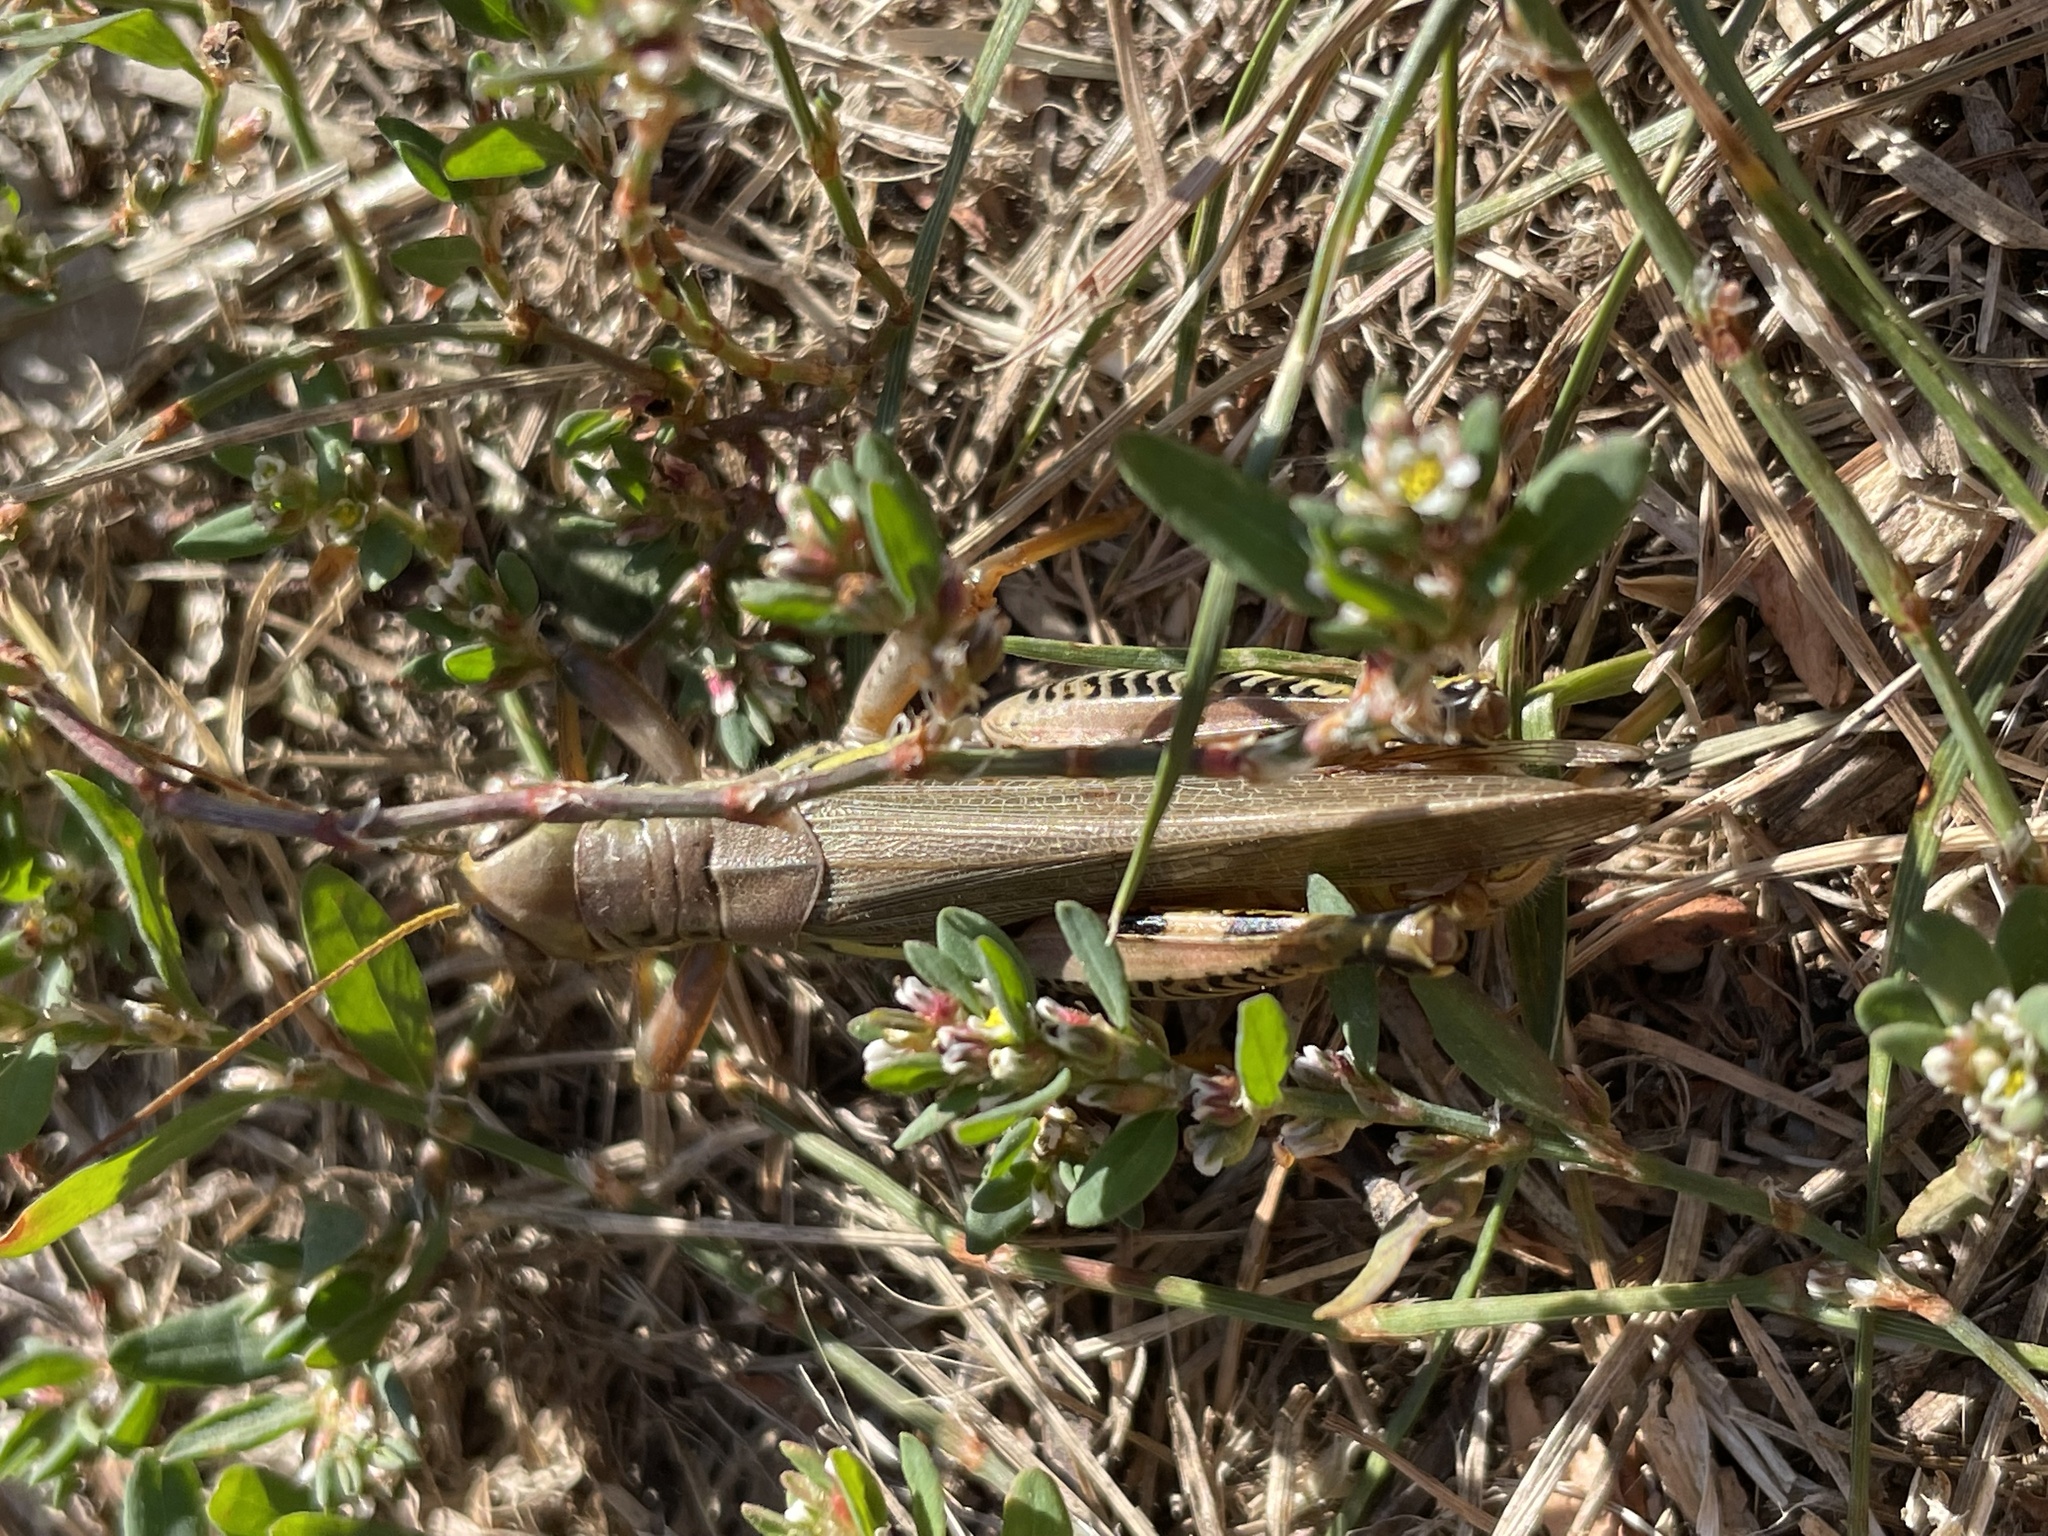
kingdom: Animalia
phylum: Arthropoda
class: Insecta
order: Orthoptera
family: Acrididae
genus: Melanoplus
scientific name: Melanoplus differentialis
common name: Differential grasshopper
